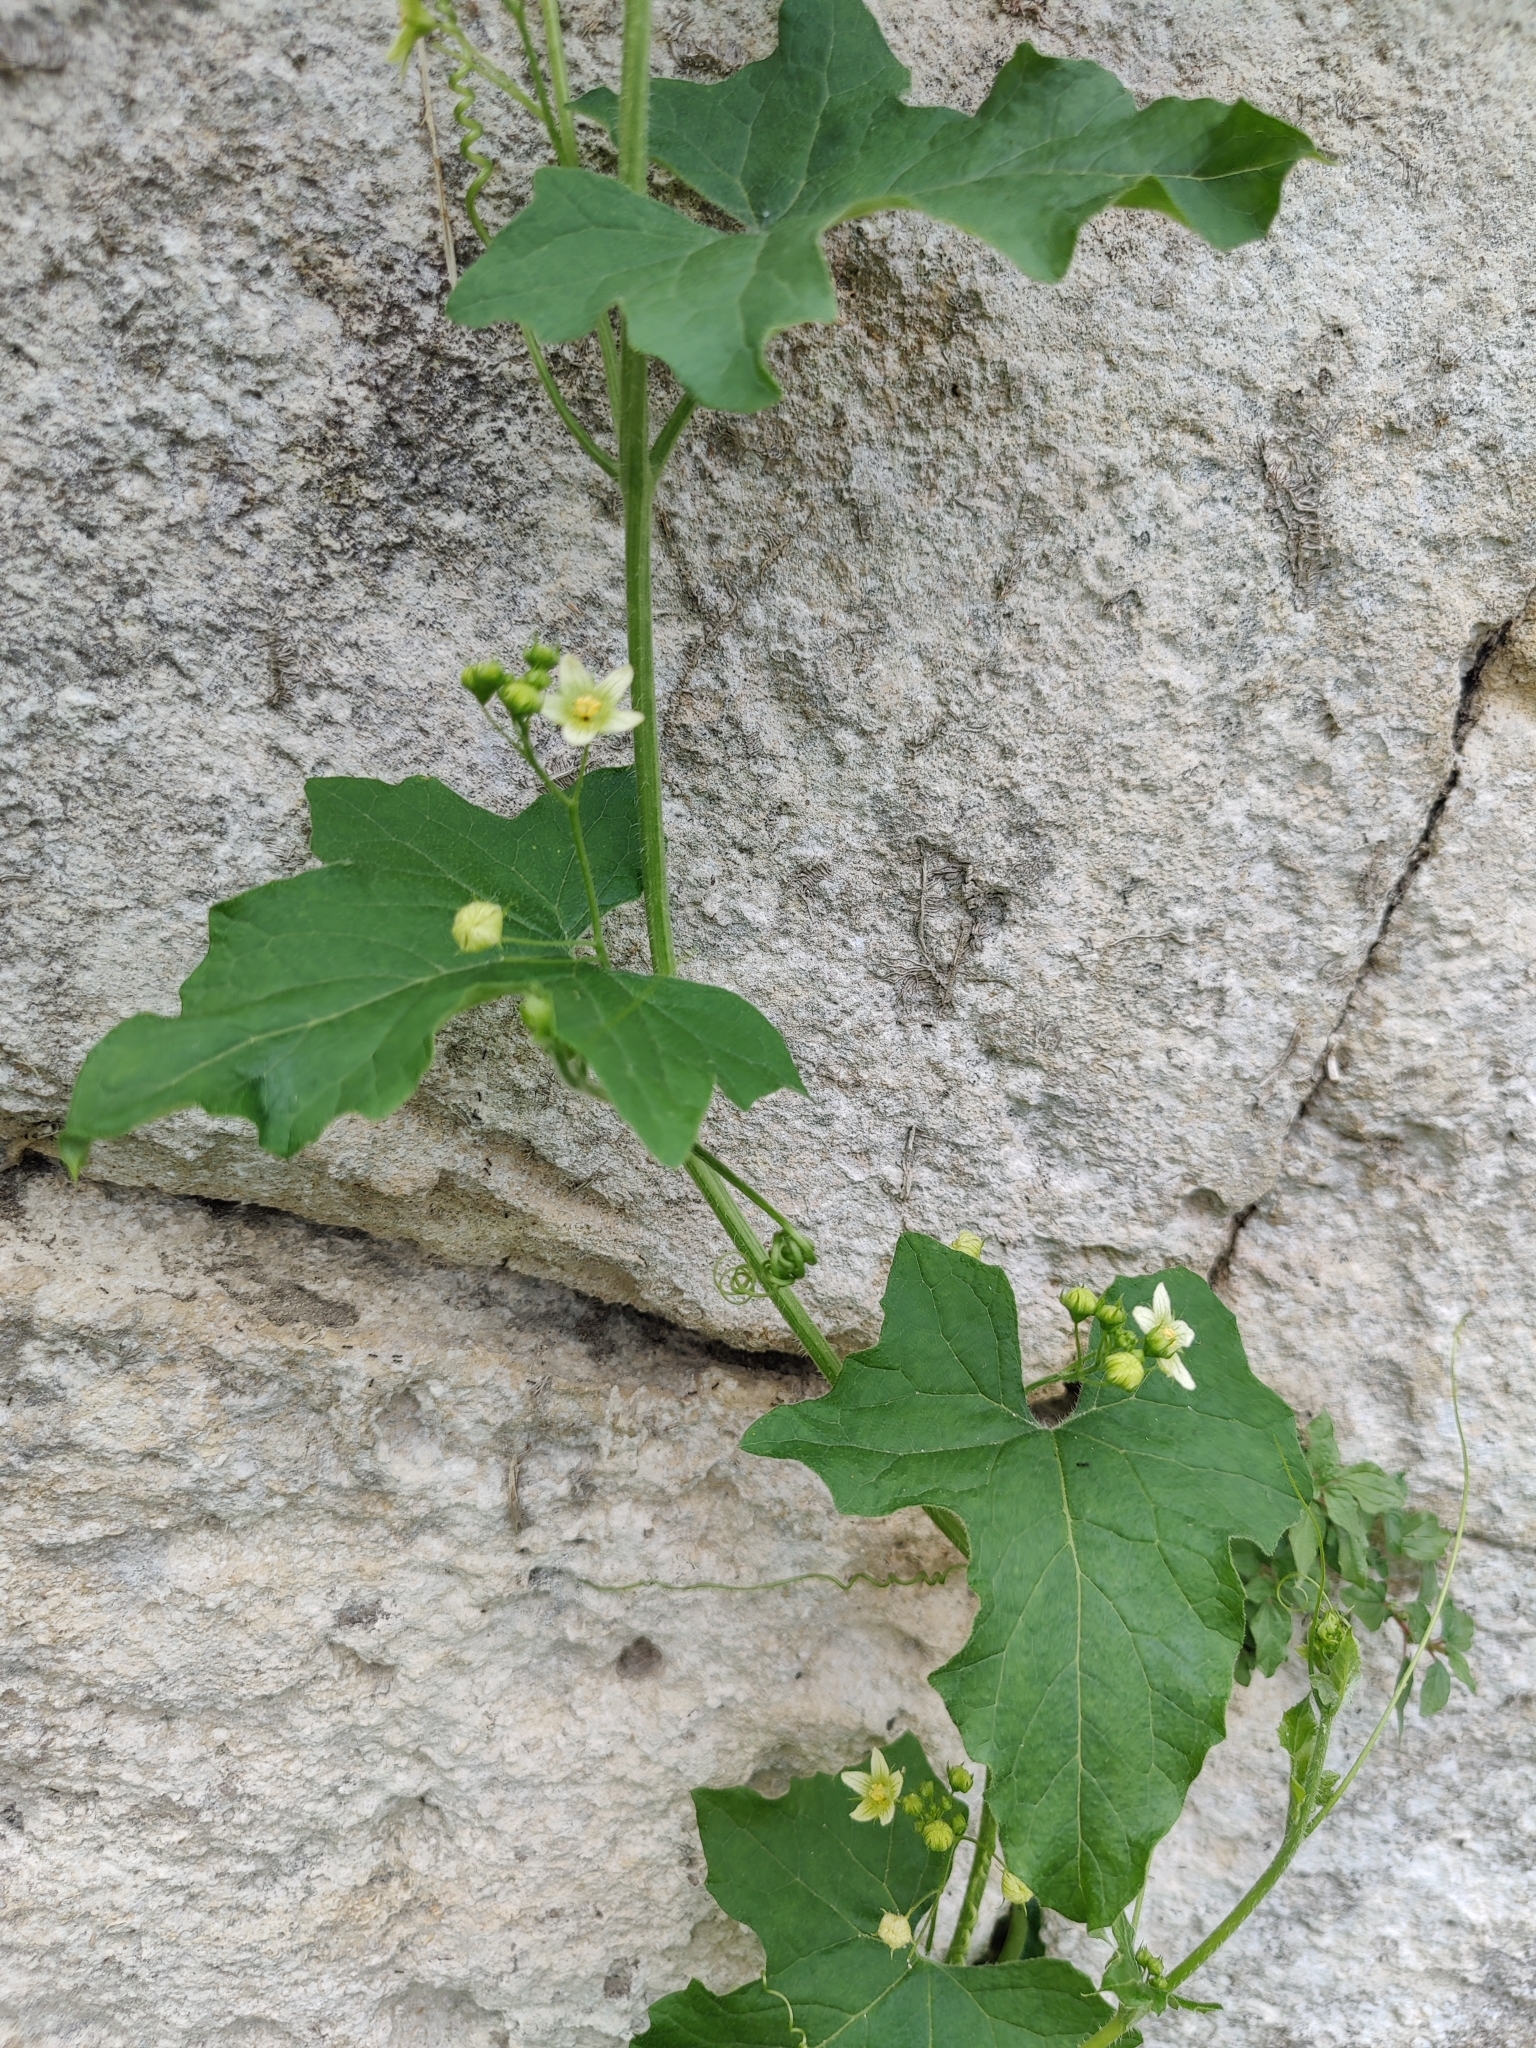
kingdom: Plantae
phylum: Tracheophyta
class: Magnoliopsida
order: Cucurbitales
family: Cucurbitaceae
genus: Bryonia
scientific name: Bryonia cretica
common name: Cretan bryony
